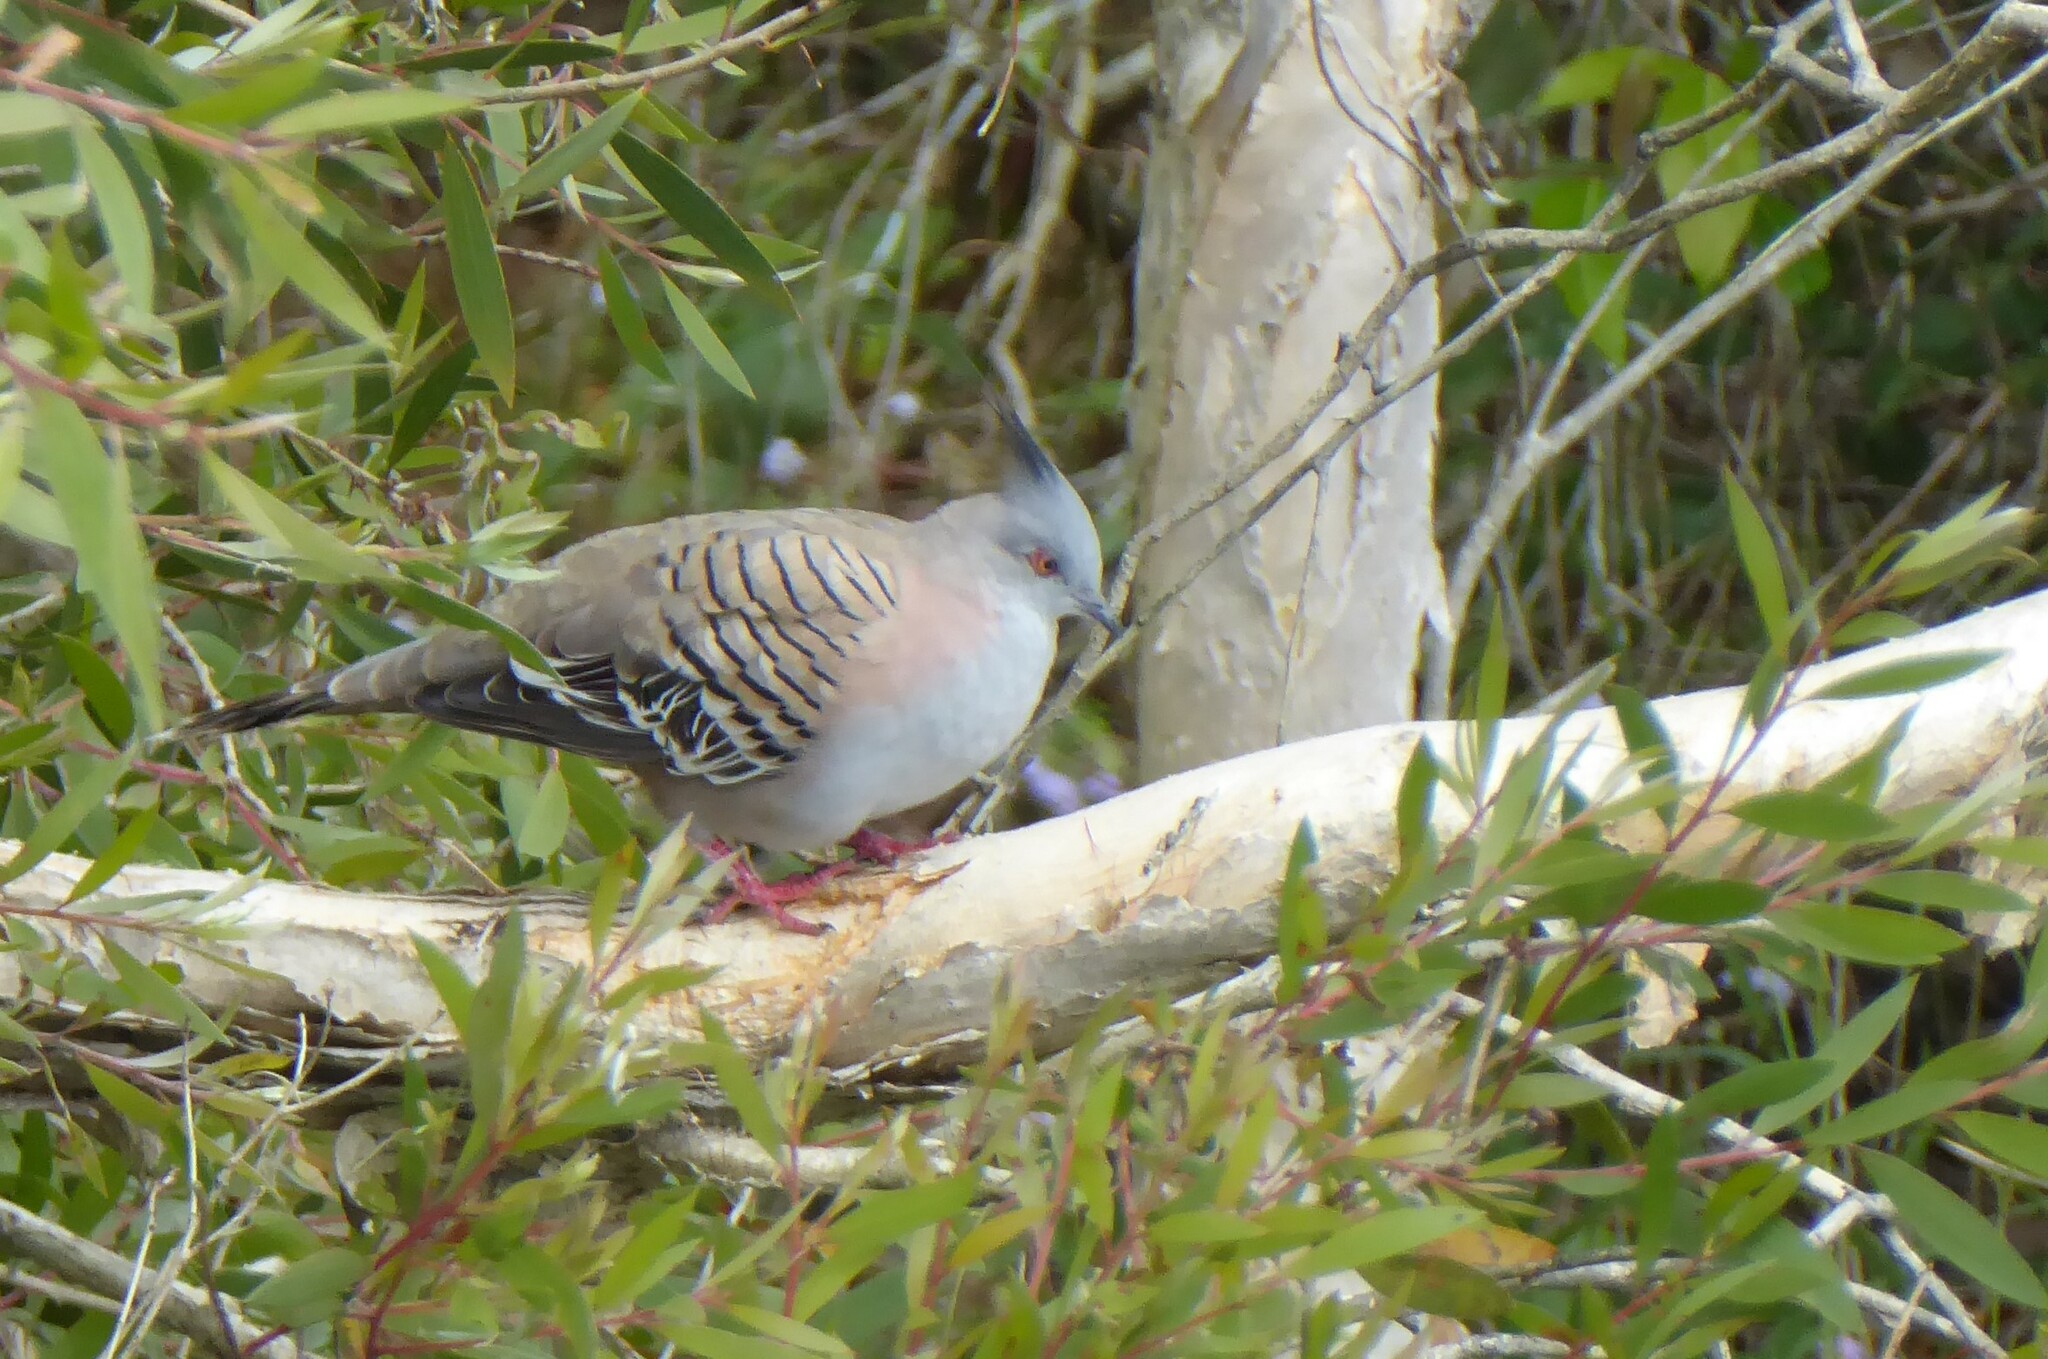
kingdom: Animalia
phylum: Chordata
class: Aves
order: Columbiformes
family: Columbidae
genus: Ocyphaps
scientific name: Ocyphaps lophotes
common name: Crested pigeon
